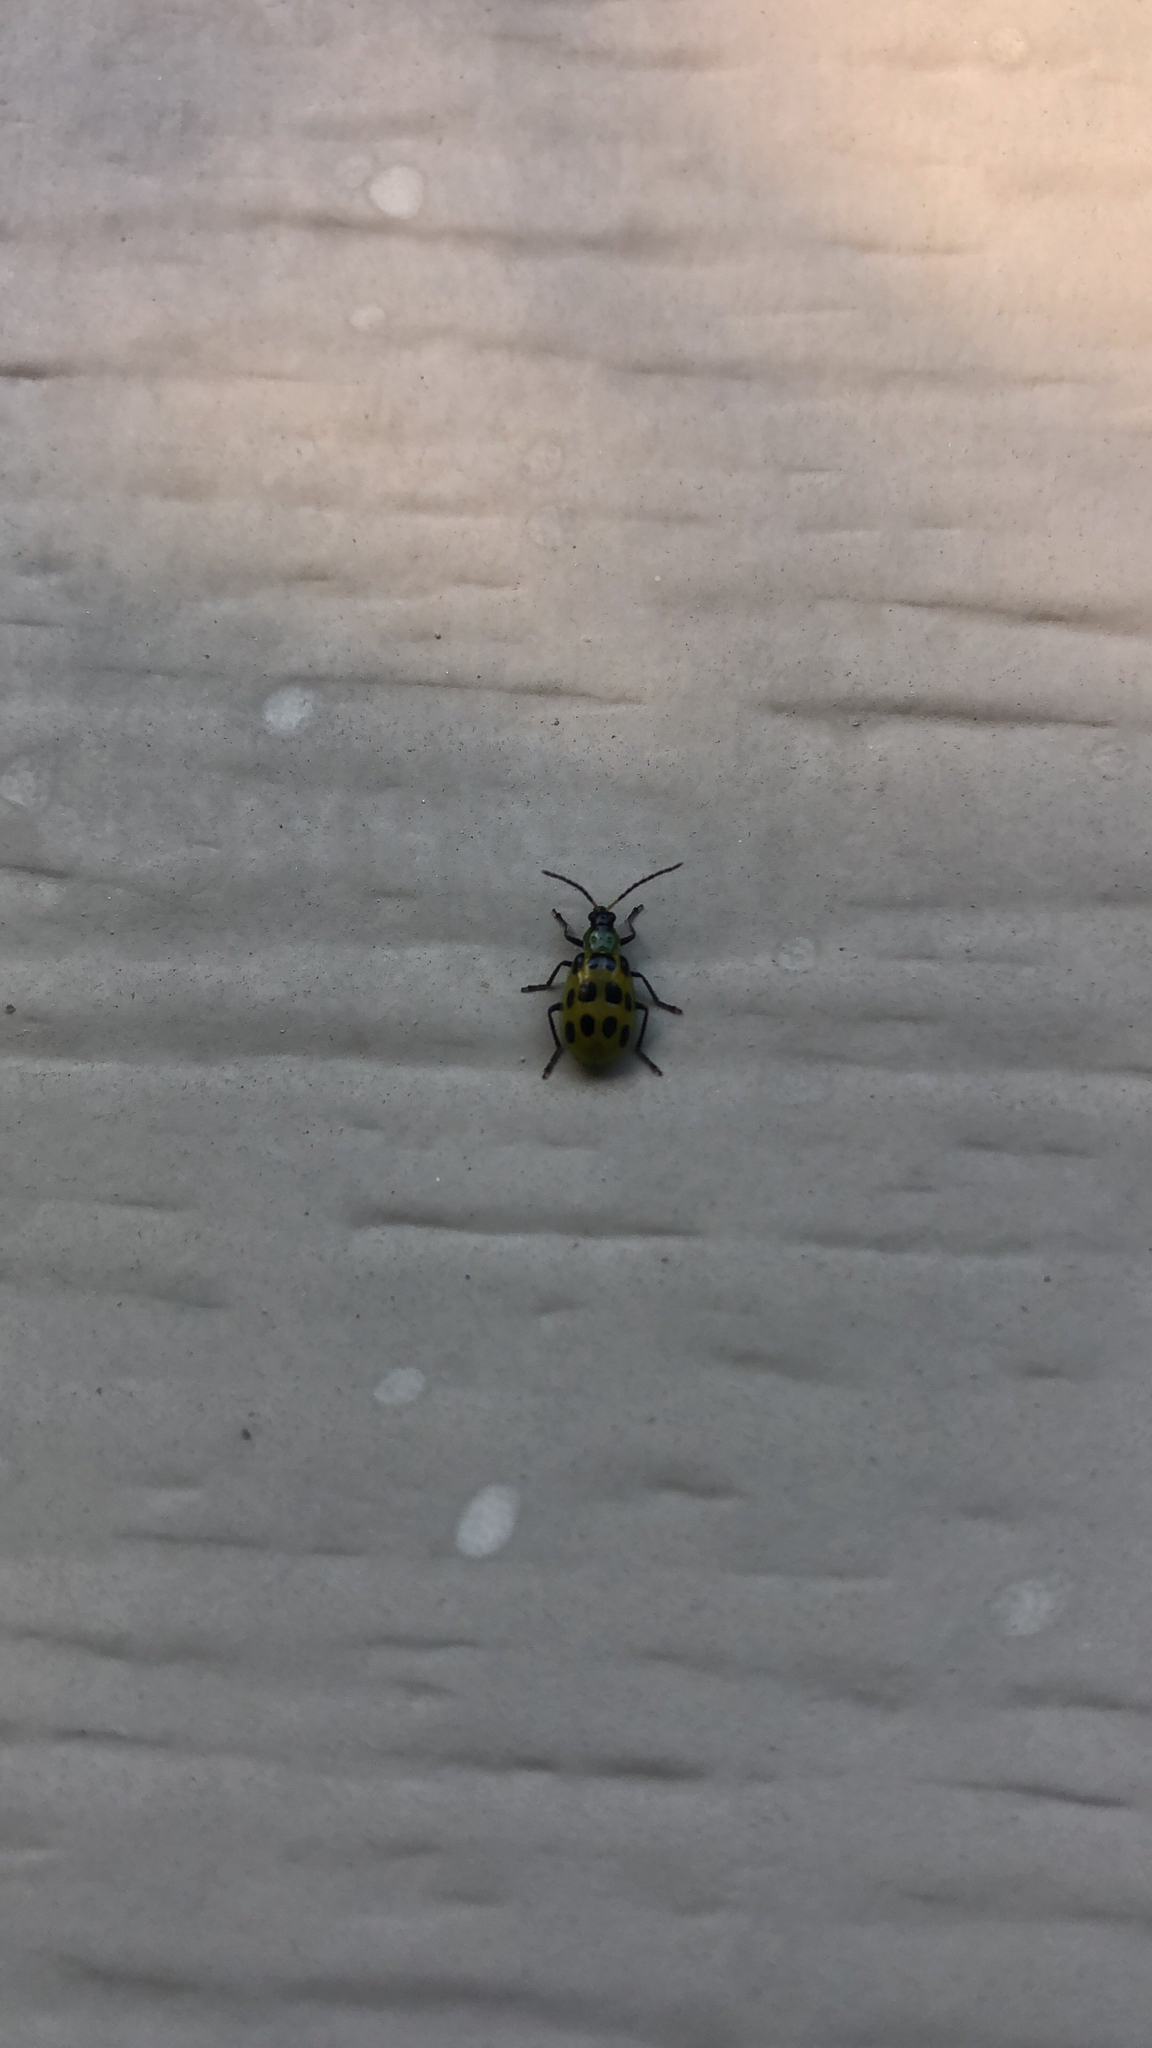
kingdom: Animalia
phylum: Arthropoda
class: Insecta
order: Coleoptera
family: Chrysomelidae
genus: Diabrotica
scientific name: Diabrotica undecimpunctata
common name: Spotted cucumber beetle
